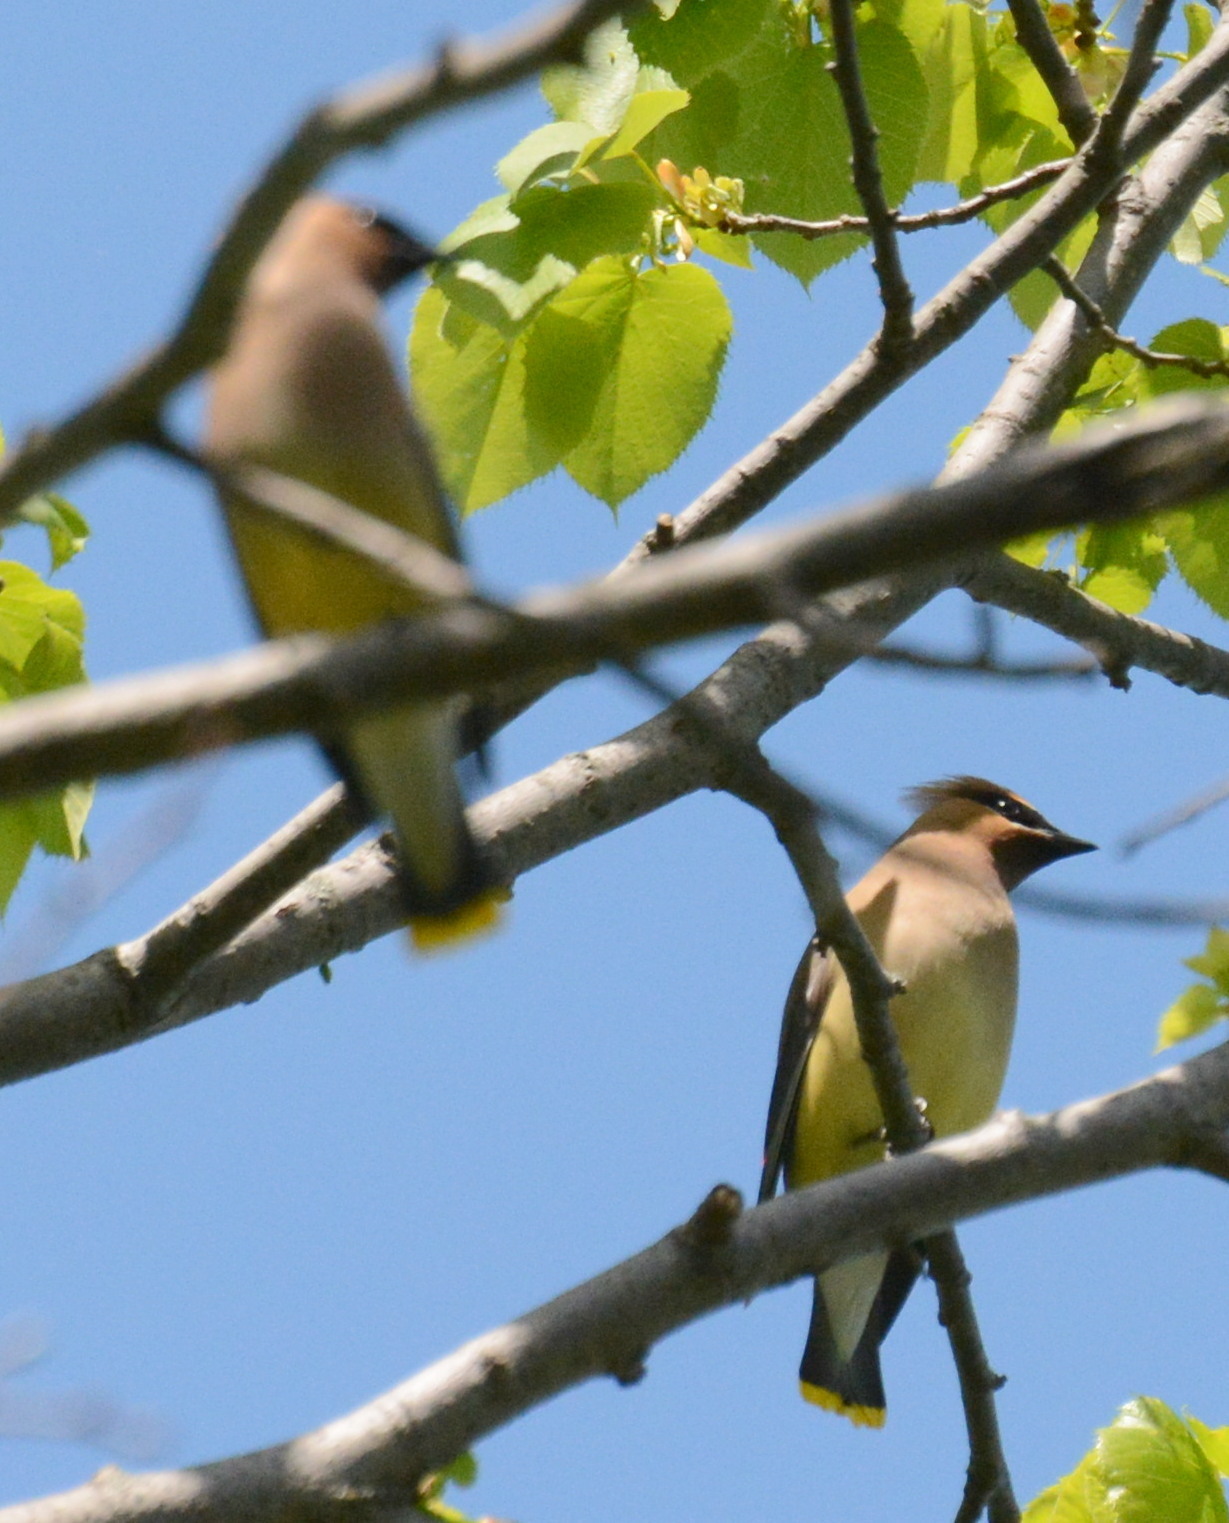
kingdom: Animalia
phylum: Chordata
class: Aves
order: Passeriformes
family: Bombycillidae
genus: Bombycilla
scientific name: Bombycilla cedrorum
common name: Cedar waxwing
